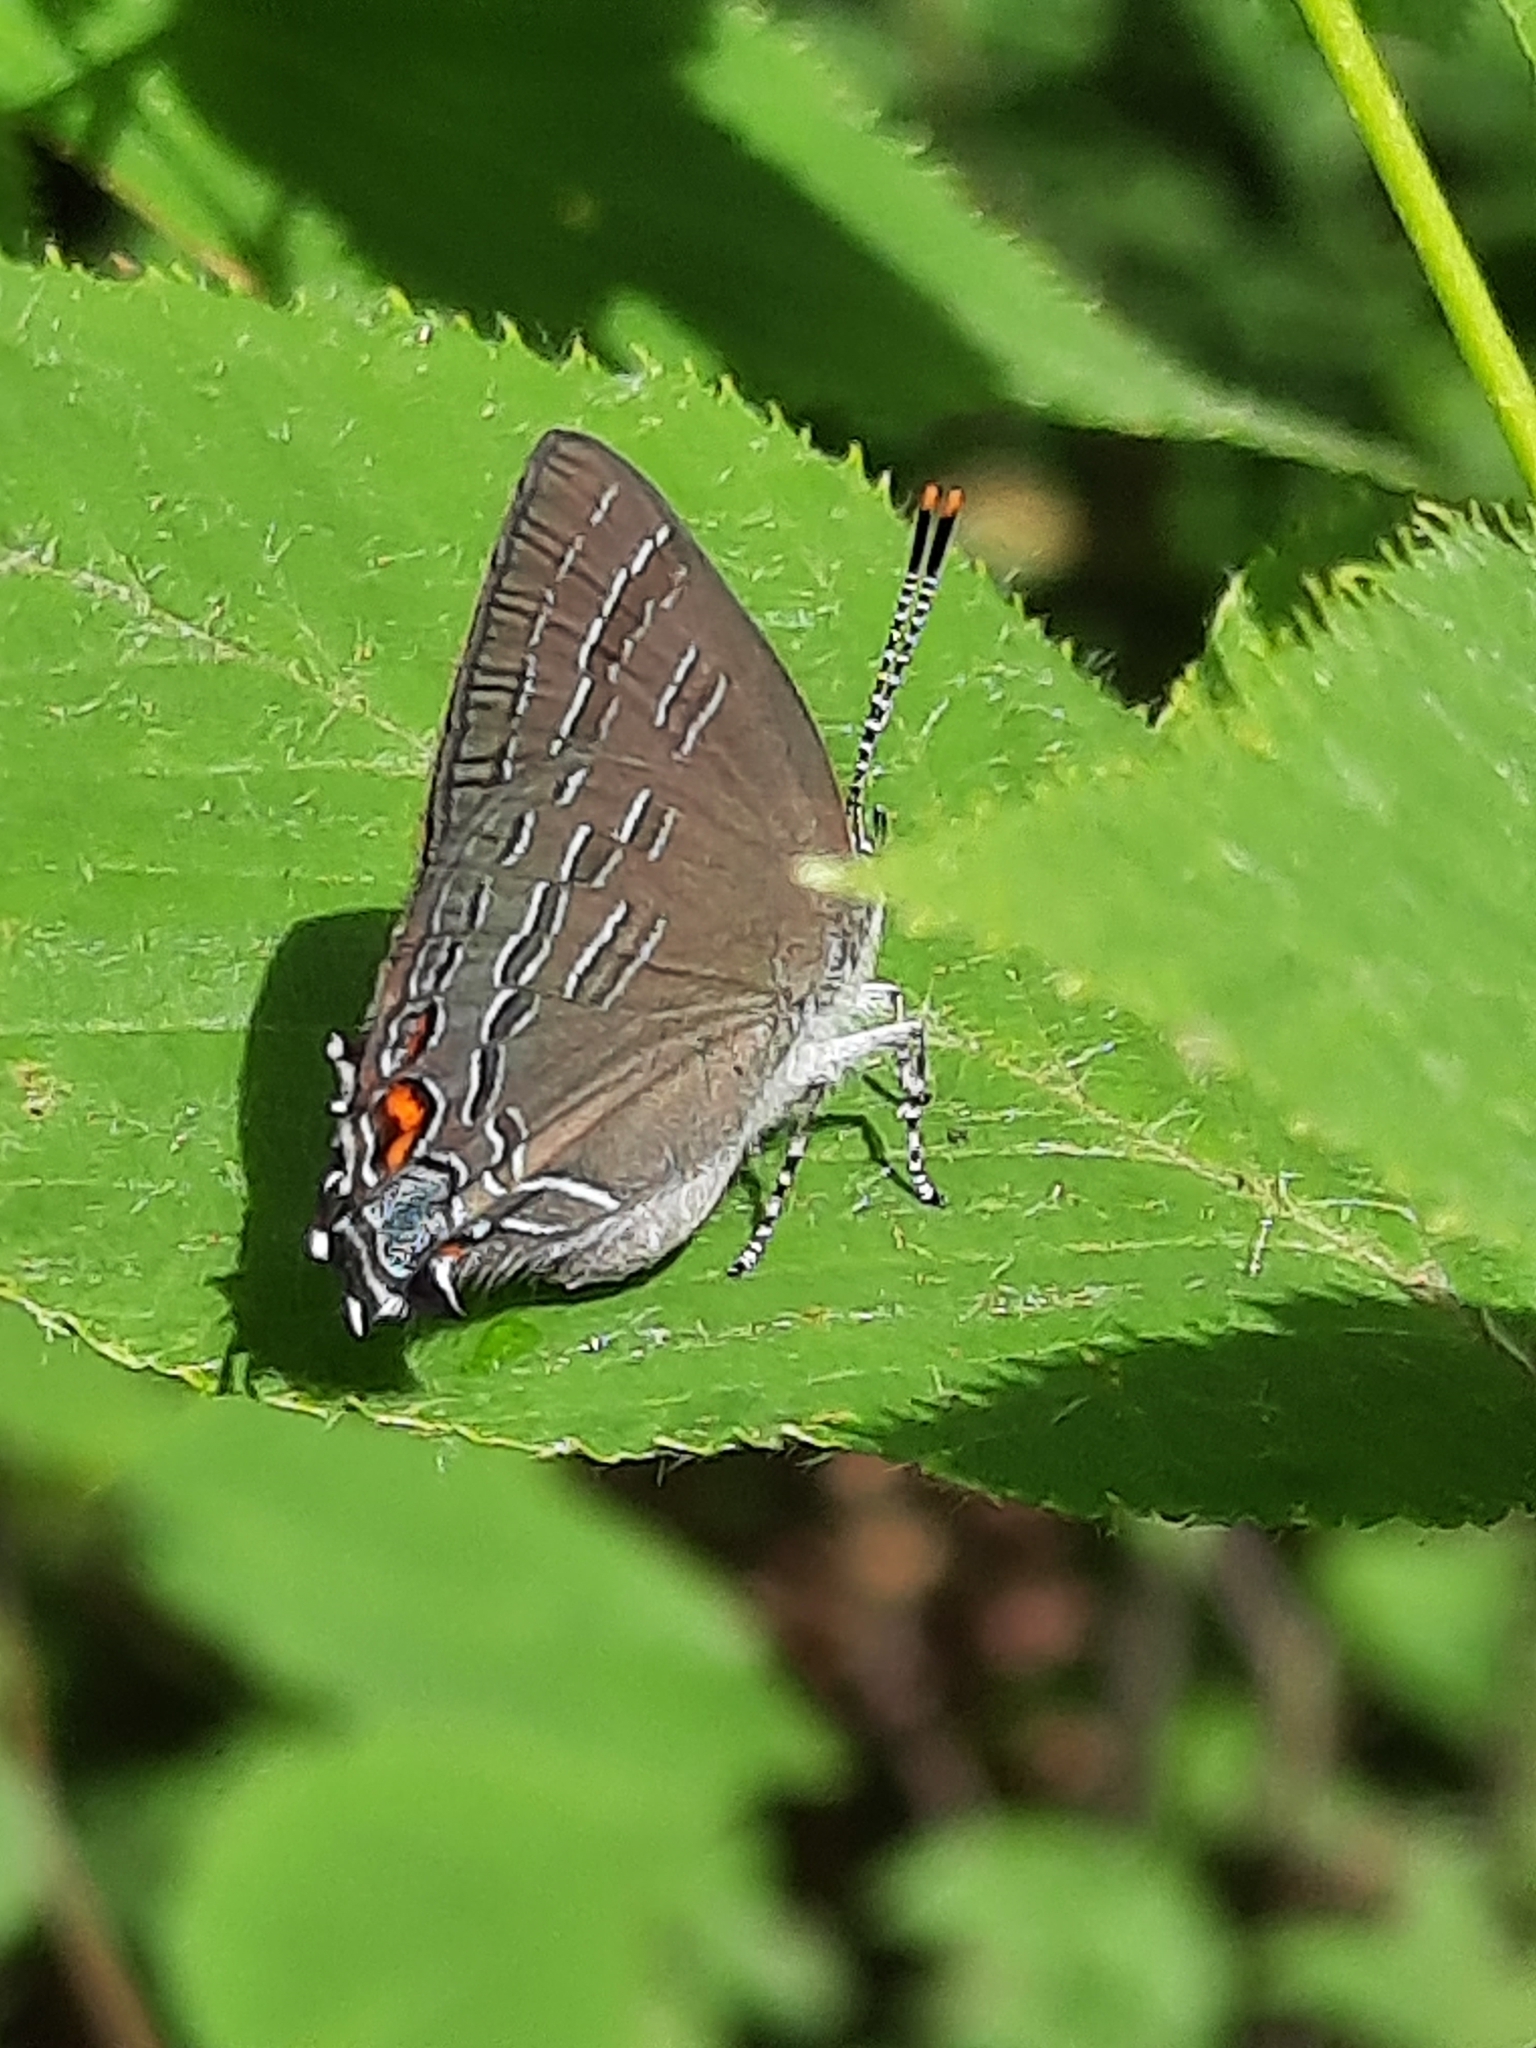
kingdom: Animalia
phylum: Arthropoda
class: Insecta
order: Lepidoptera
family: Lycaenidae
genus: Satyrium
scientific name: Satyrium calanus
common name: Banded hairstreak
